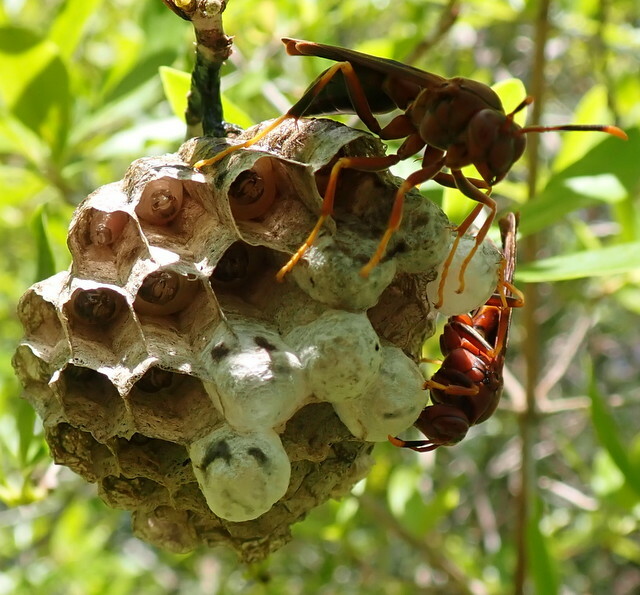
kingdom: Animalia
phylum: Arthropoda
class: Insecta
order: Hymenoptera
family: Eumenidae
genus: Polistes
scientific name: Polistes annularis
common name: Ringed paper wasp
